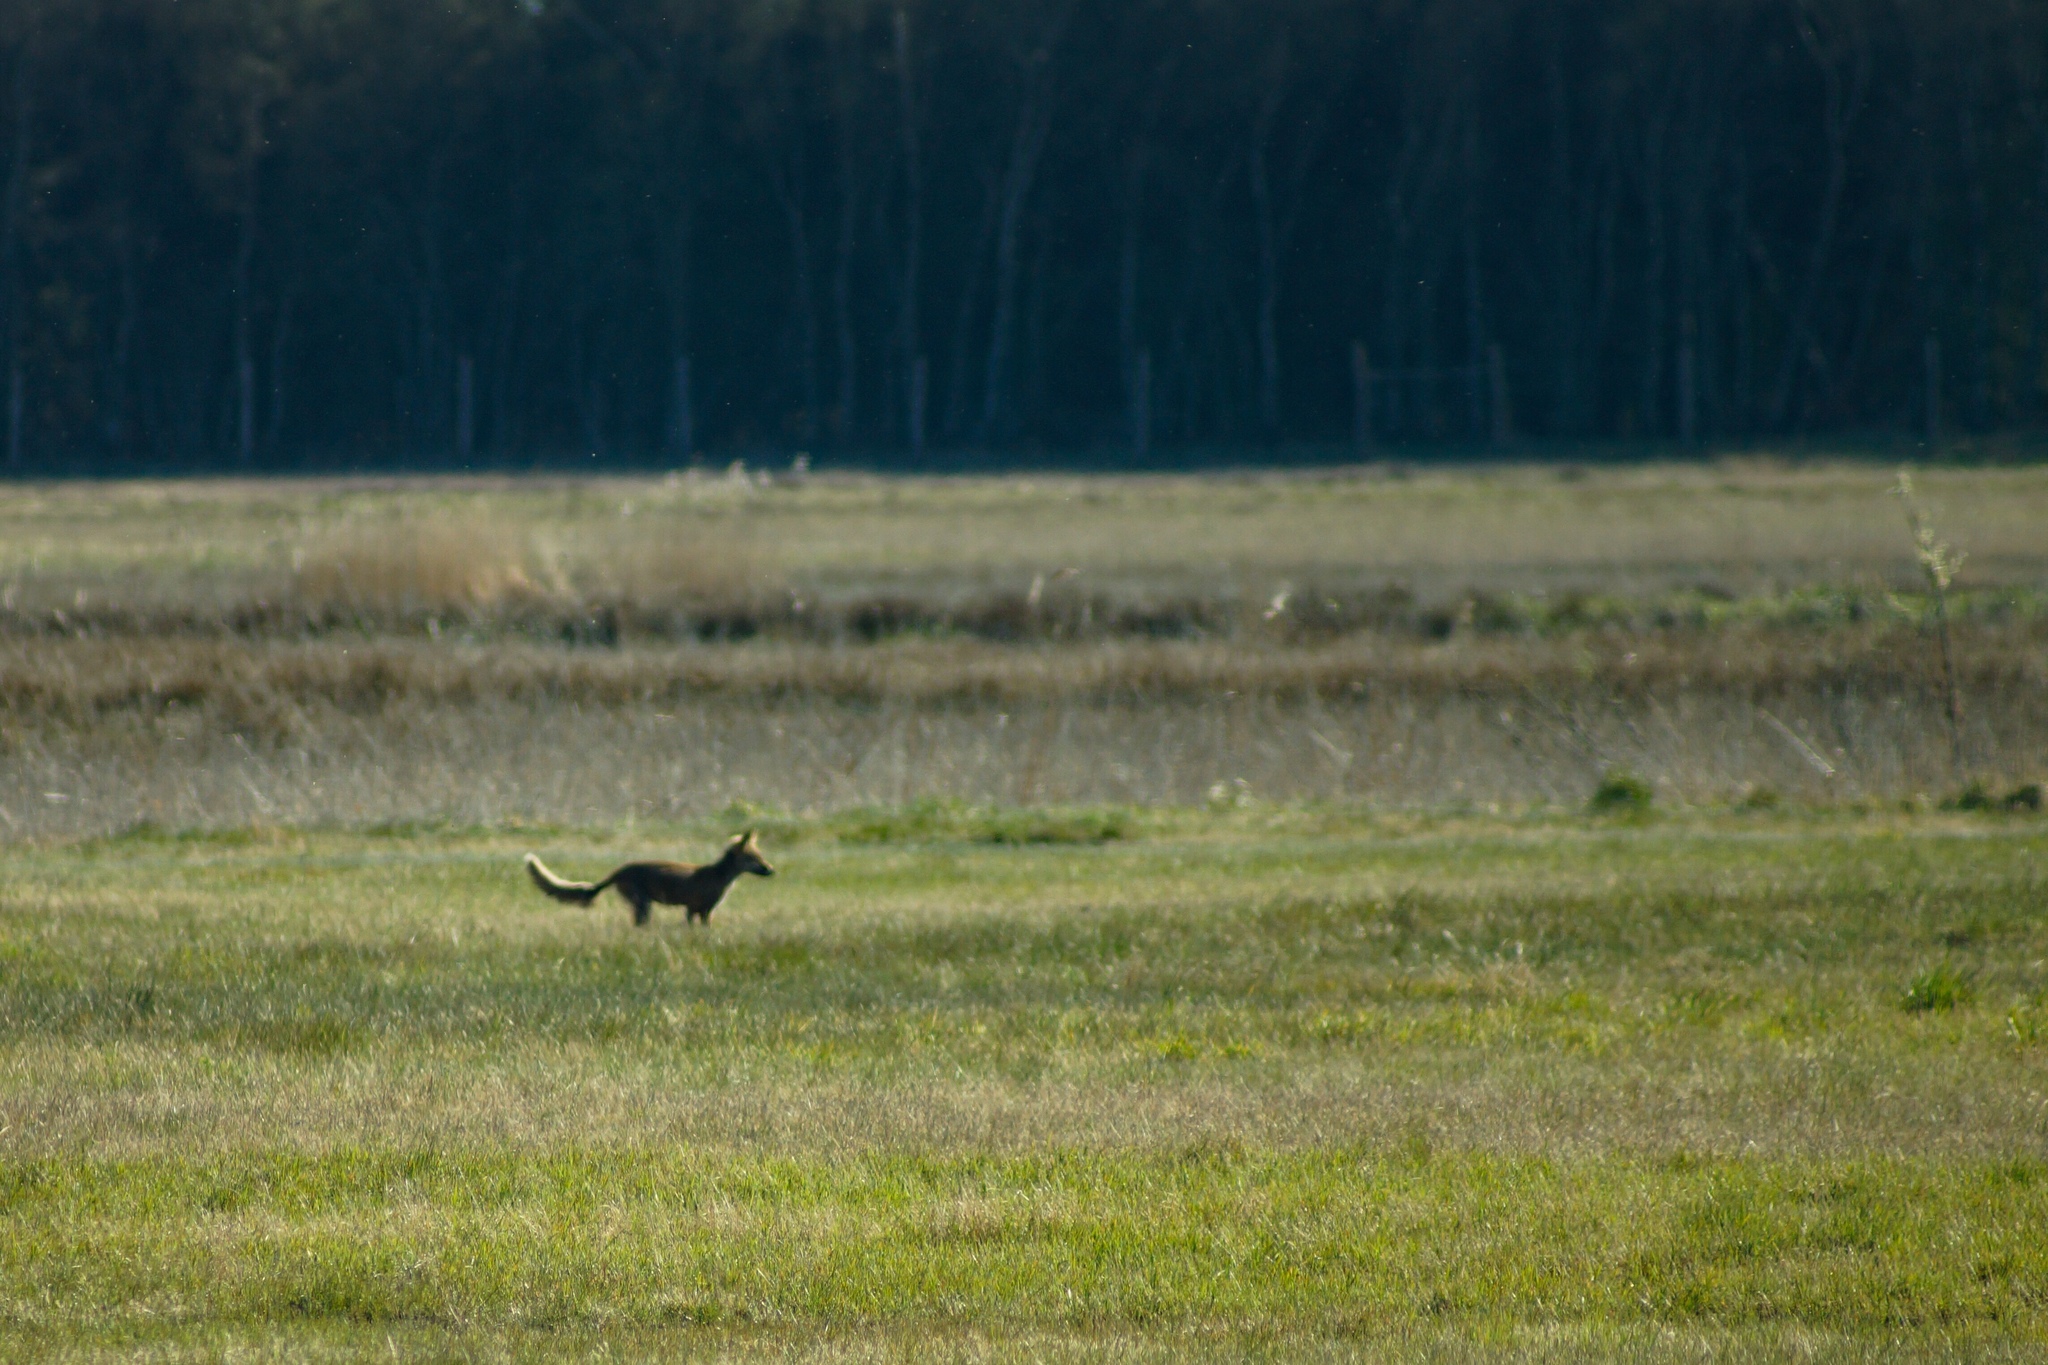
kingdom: Animalia
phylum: Chordata
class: Mammalia
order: Carnivora
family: Canidae
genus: Vulpes
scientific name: Vulpes vulpes
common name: Red fox
